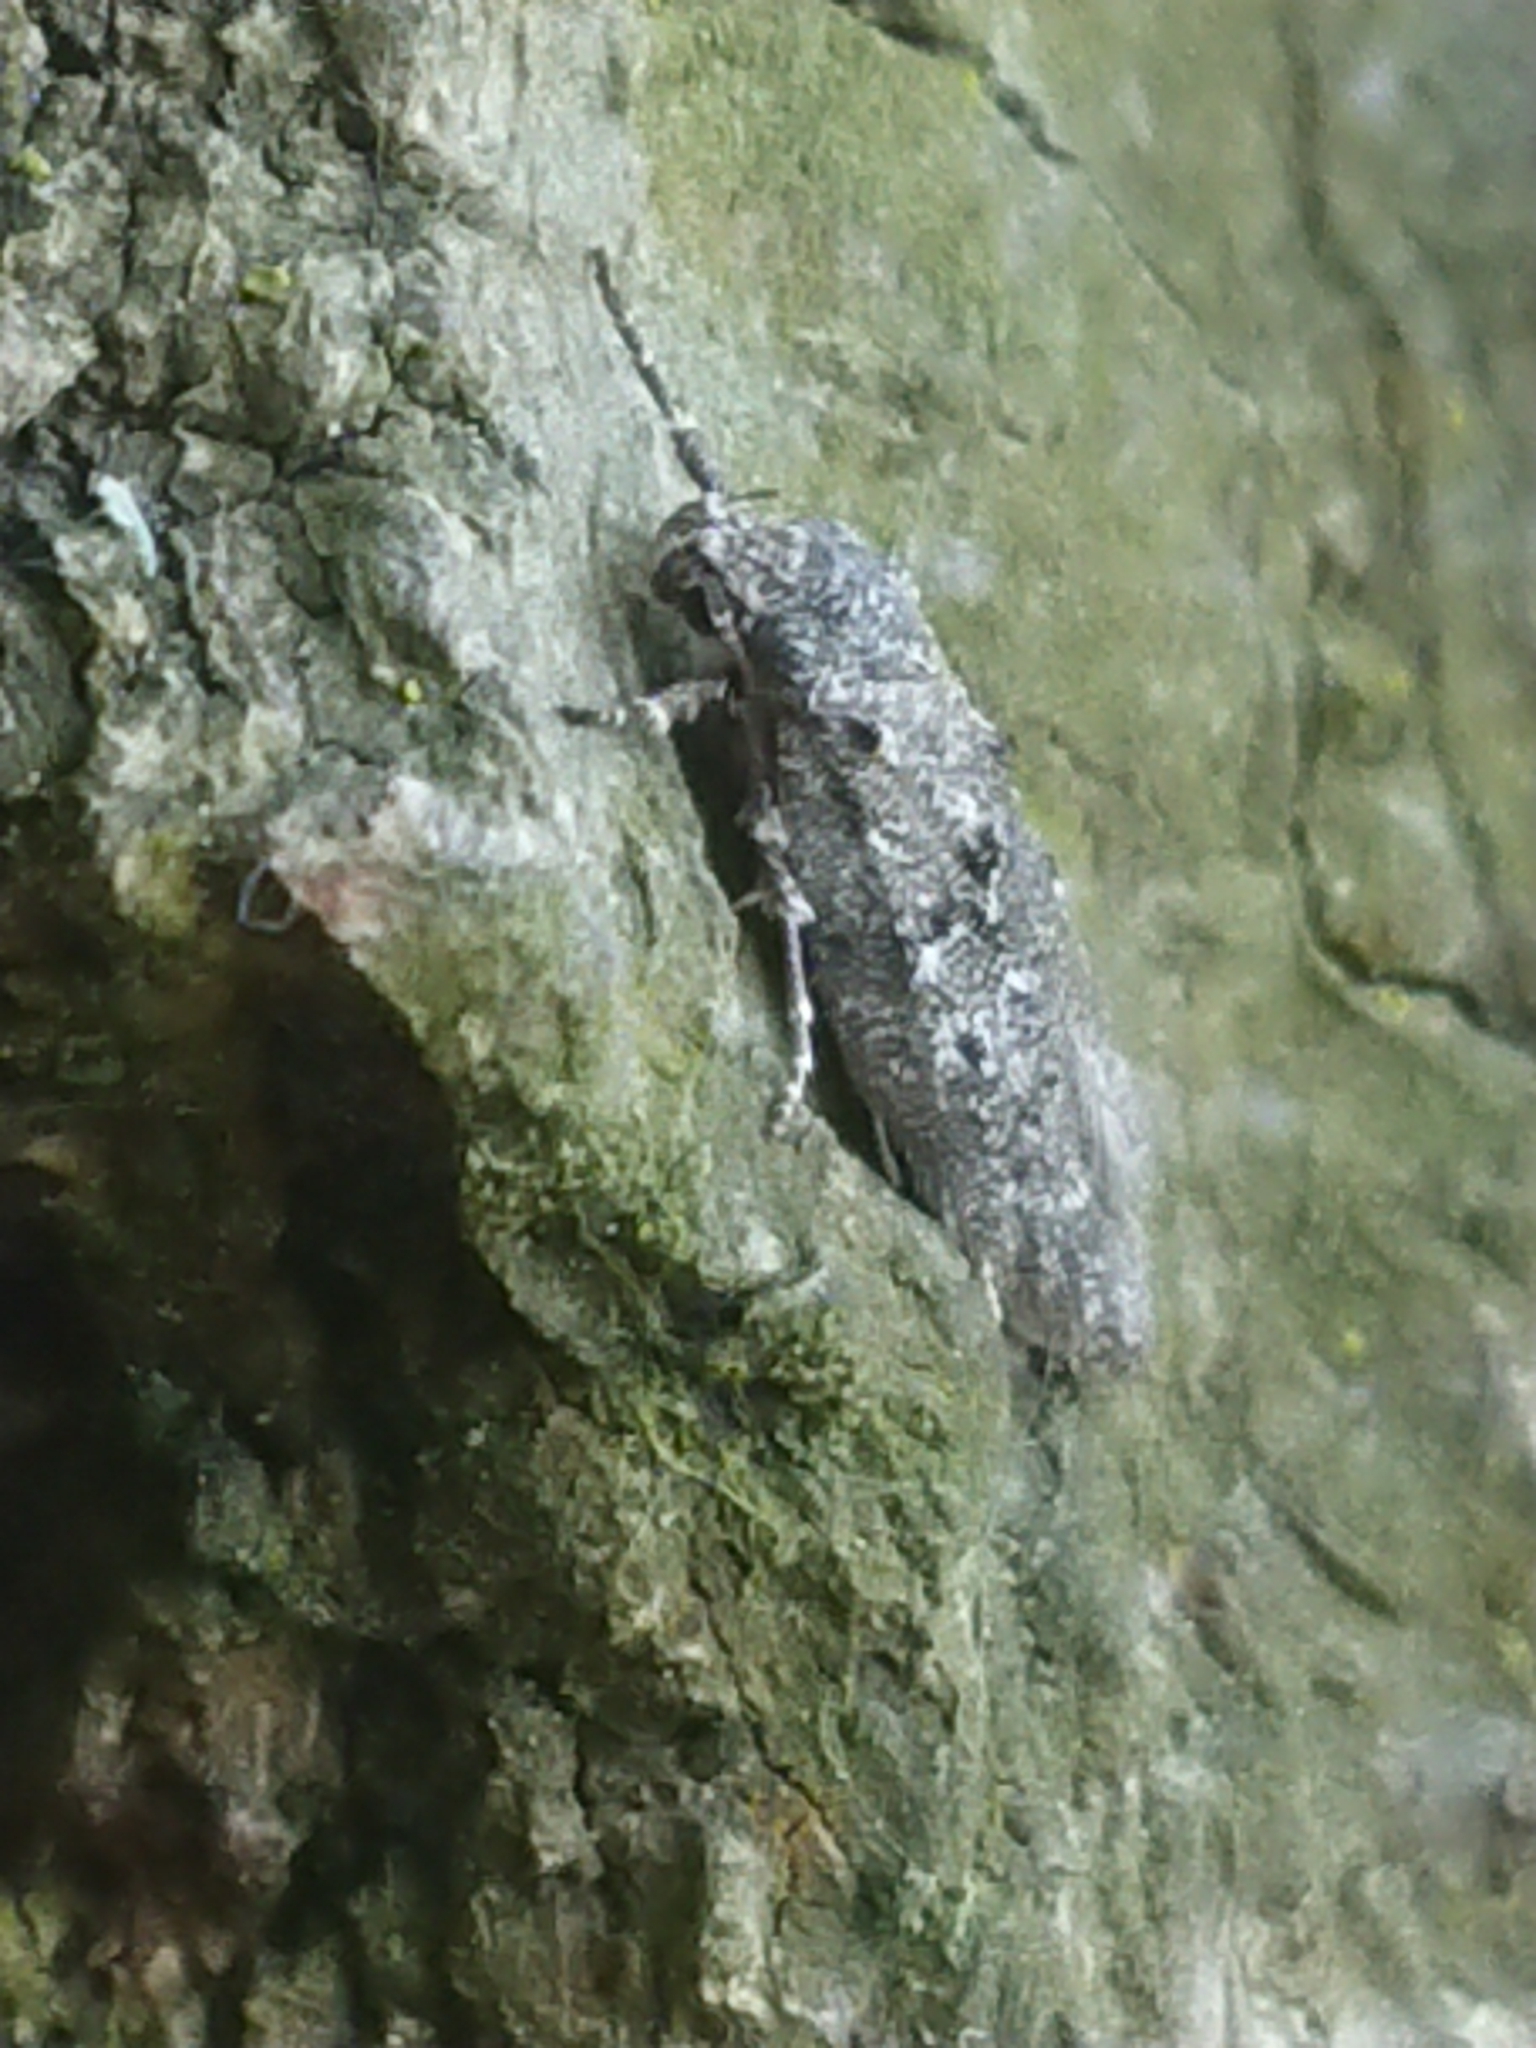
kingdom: Animalia
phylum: Arthropoda
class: Insecta
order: Lepidoptera
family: Oecophoridae
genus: Izatha
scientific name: Izatha convulsella
